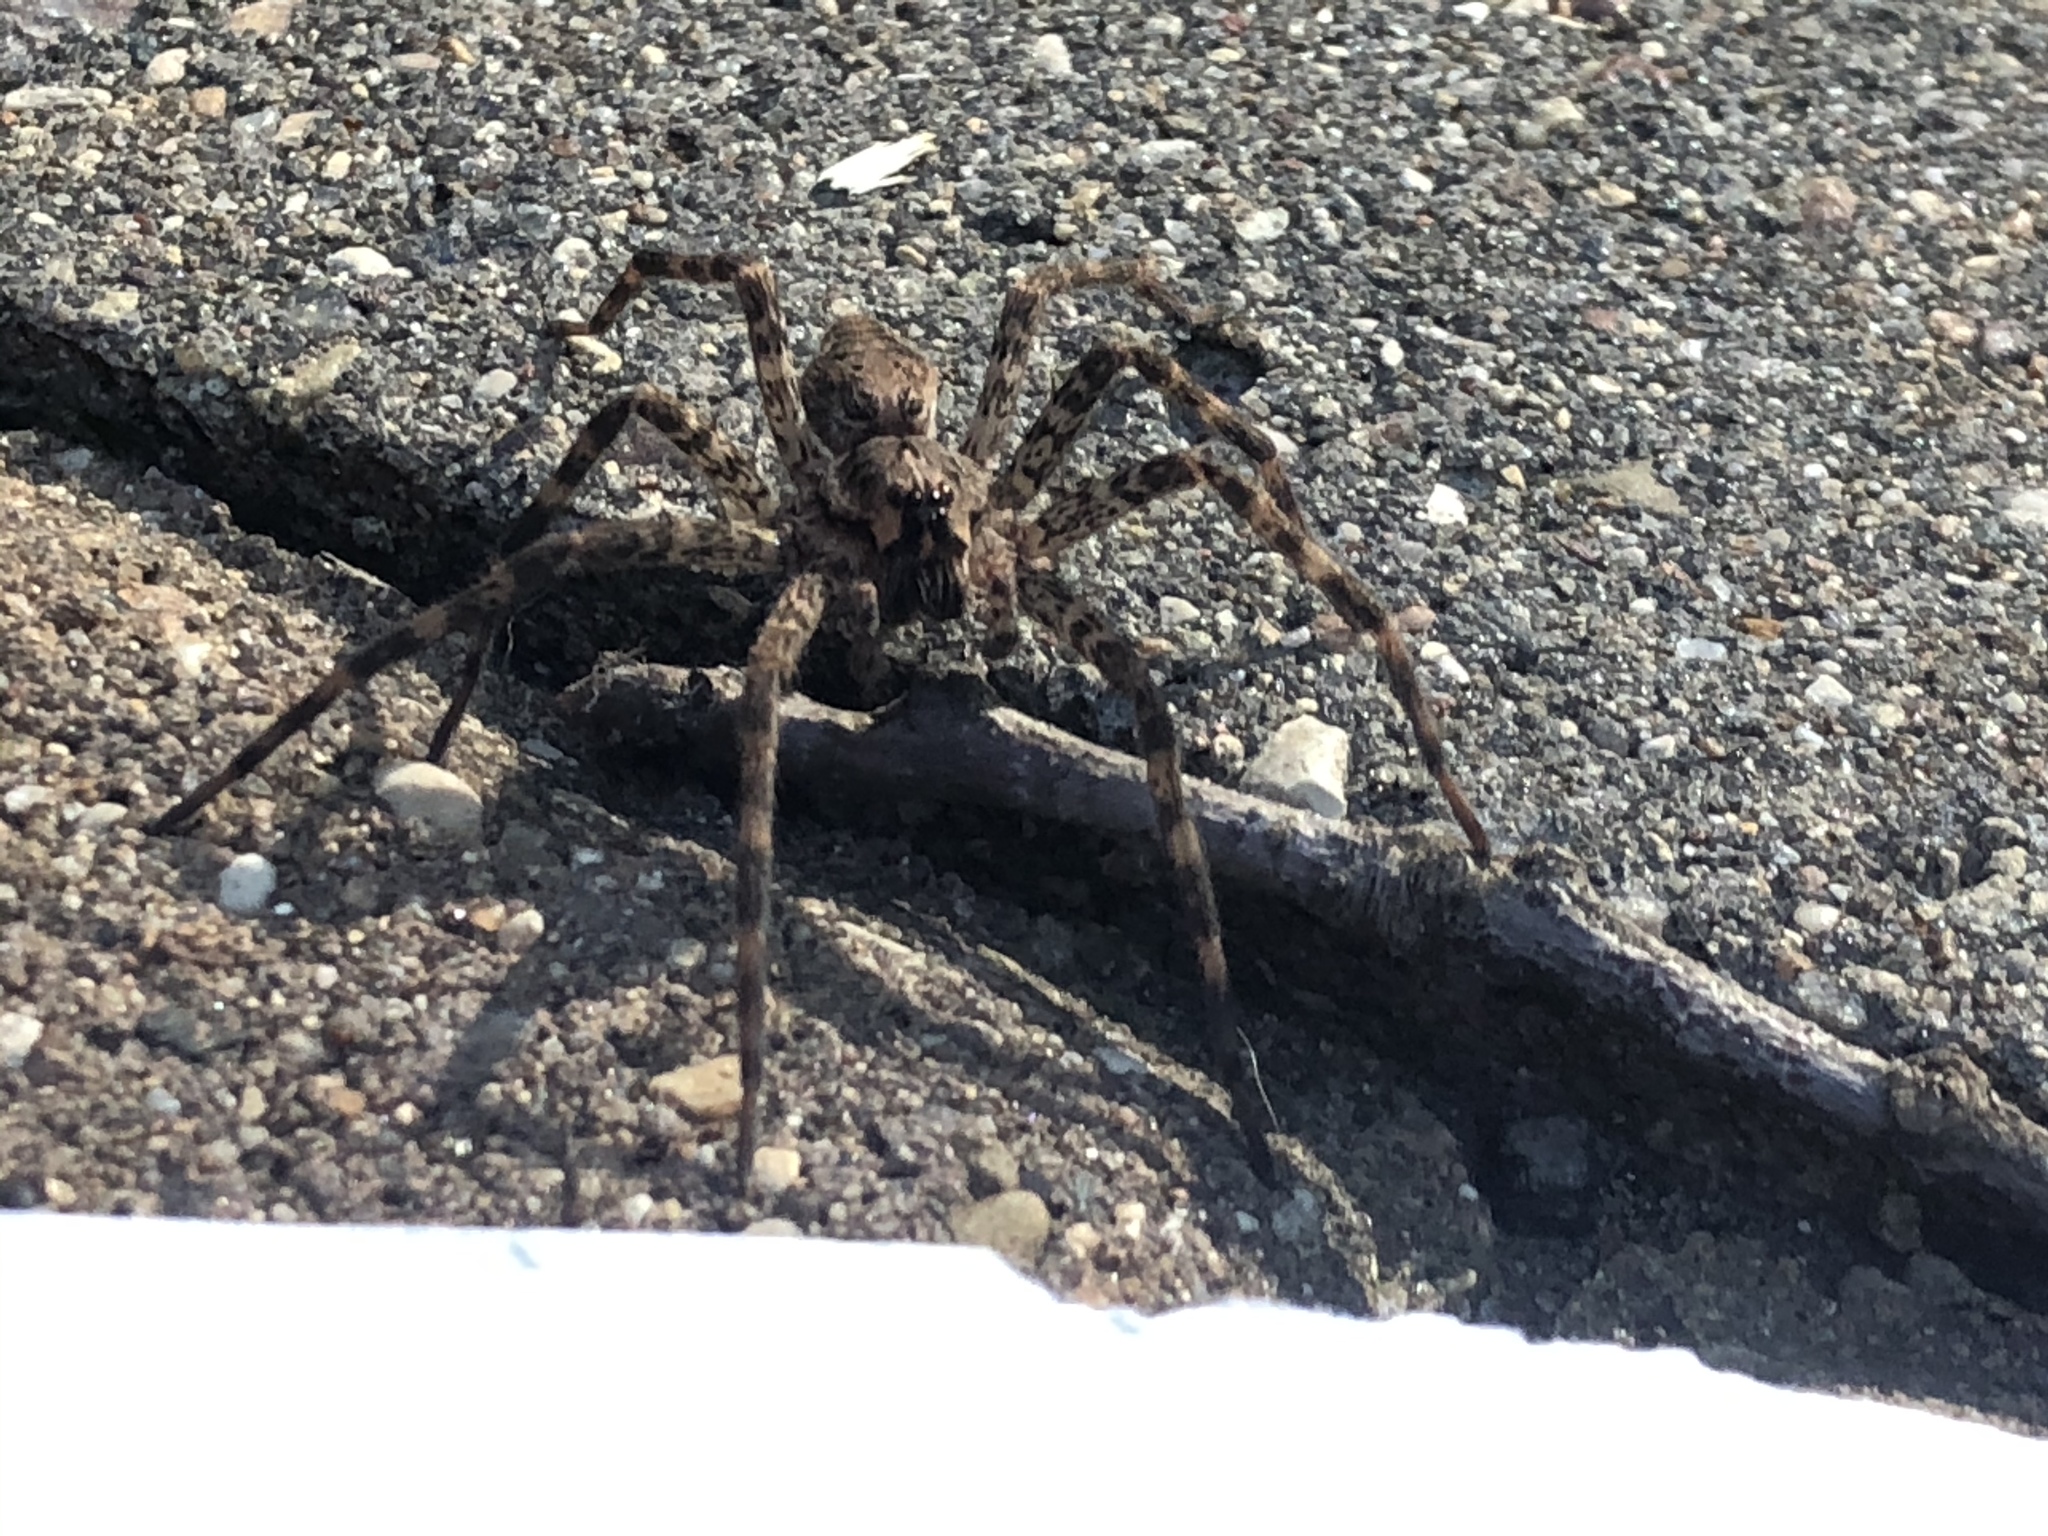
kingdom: Animalia
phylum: Arthropoda
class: Arachnida
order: Araneae
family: Pisauridae
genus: Dolomedes
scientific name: Dolomedes tenebrosus
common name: Dark fishing spider
